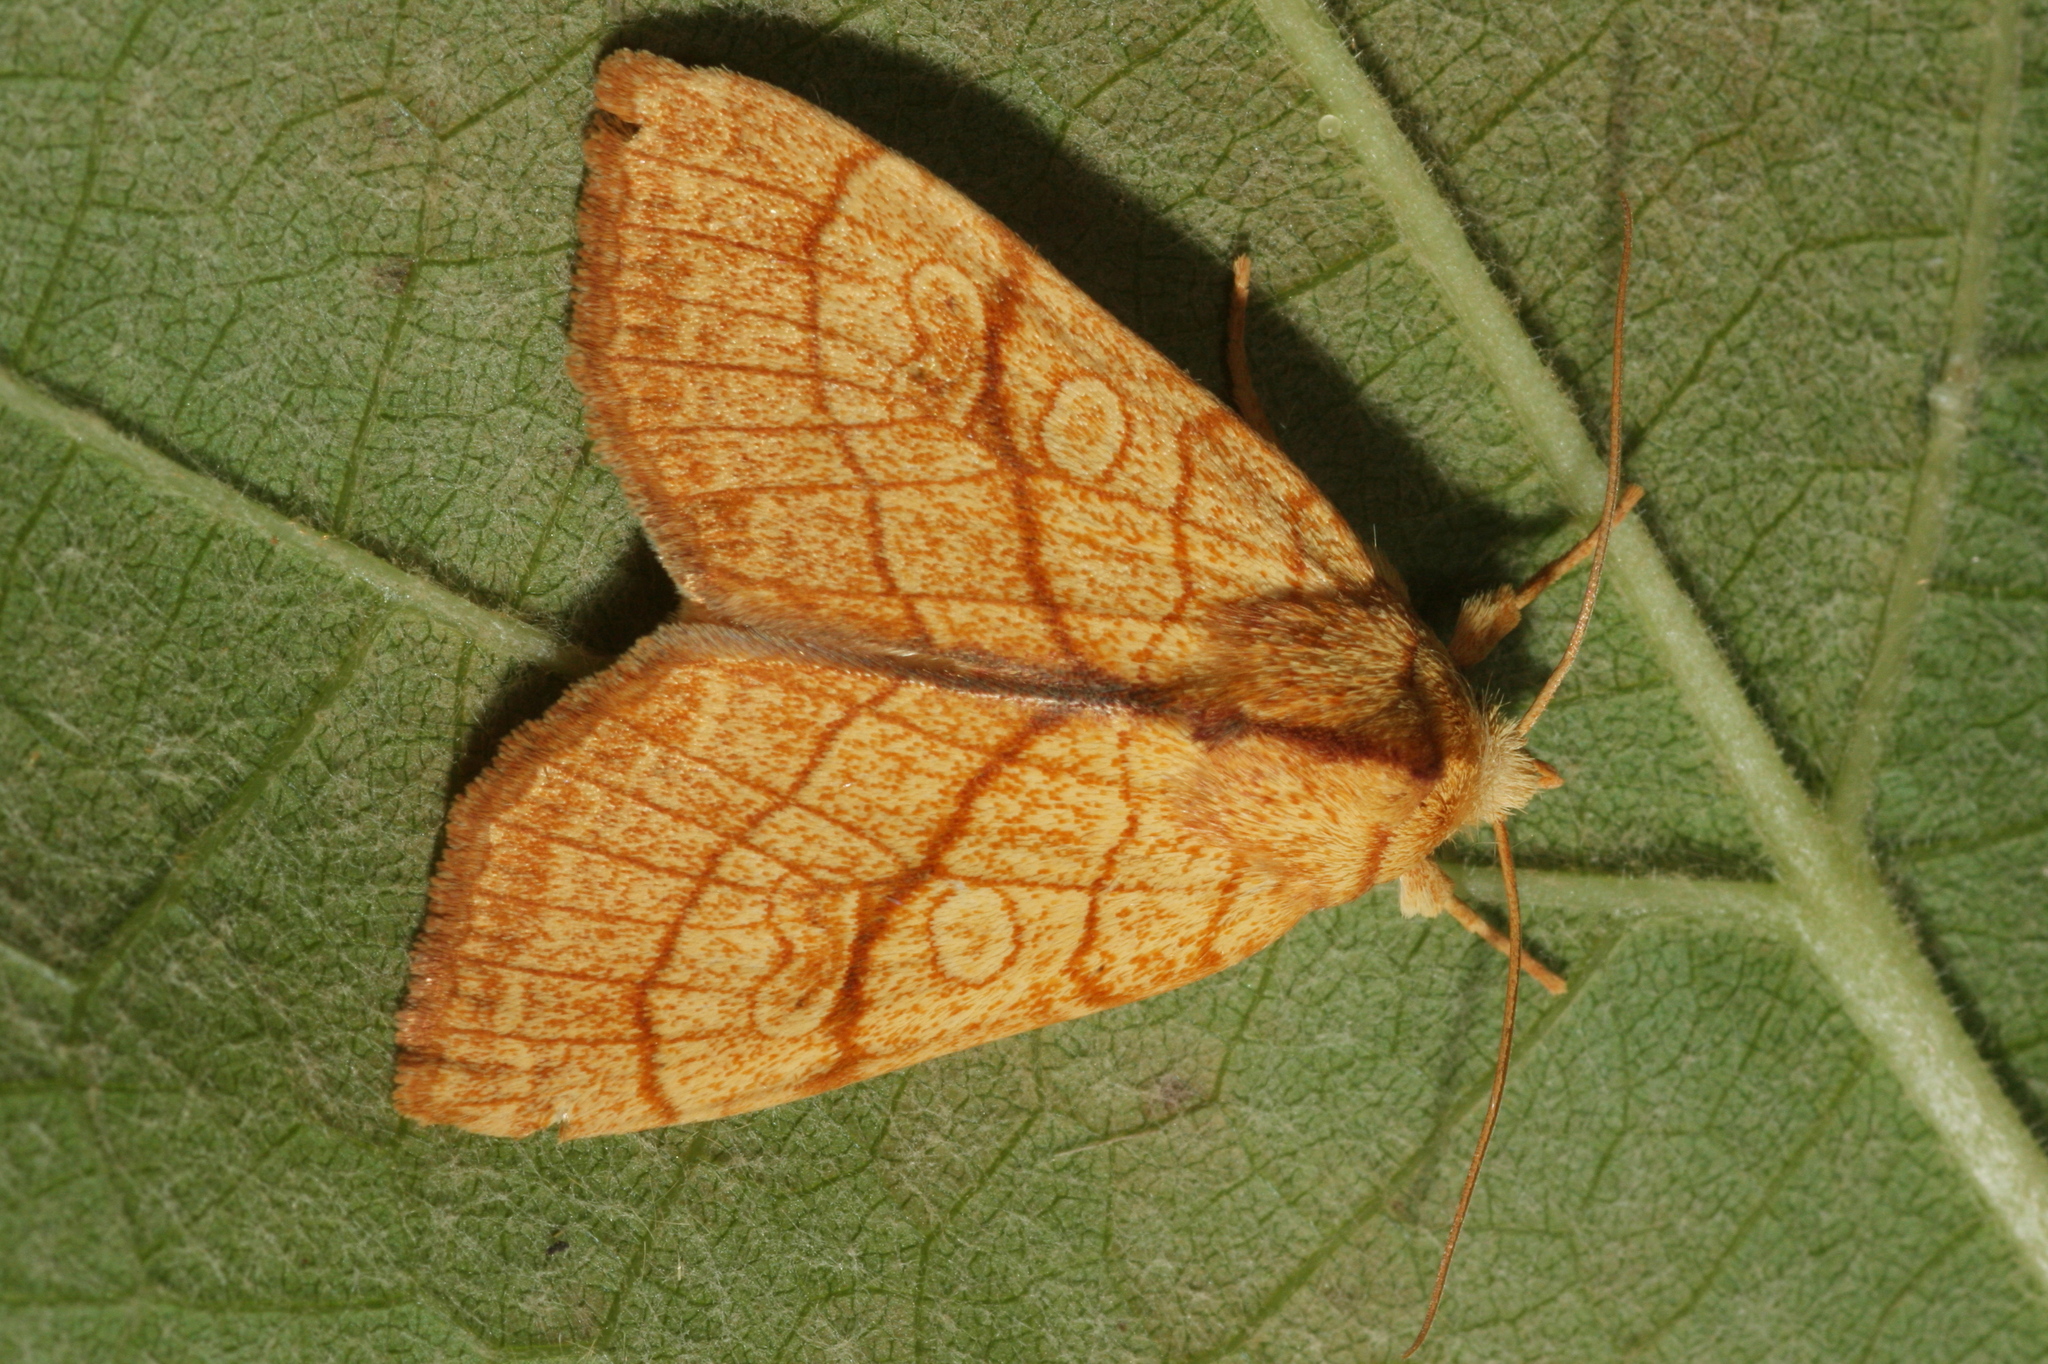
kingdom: Animalia
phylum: Arthropoda
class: Insecta
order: Lepidoptera
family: Noctuidae
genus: Tiliacea
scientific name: Tiliacea citrago
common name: Orange sallow
